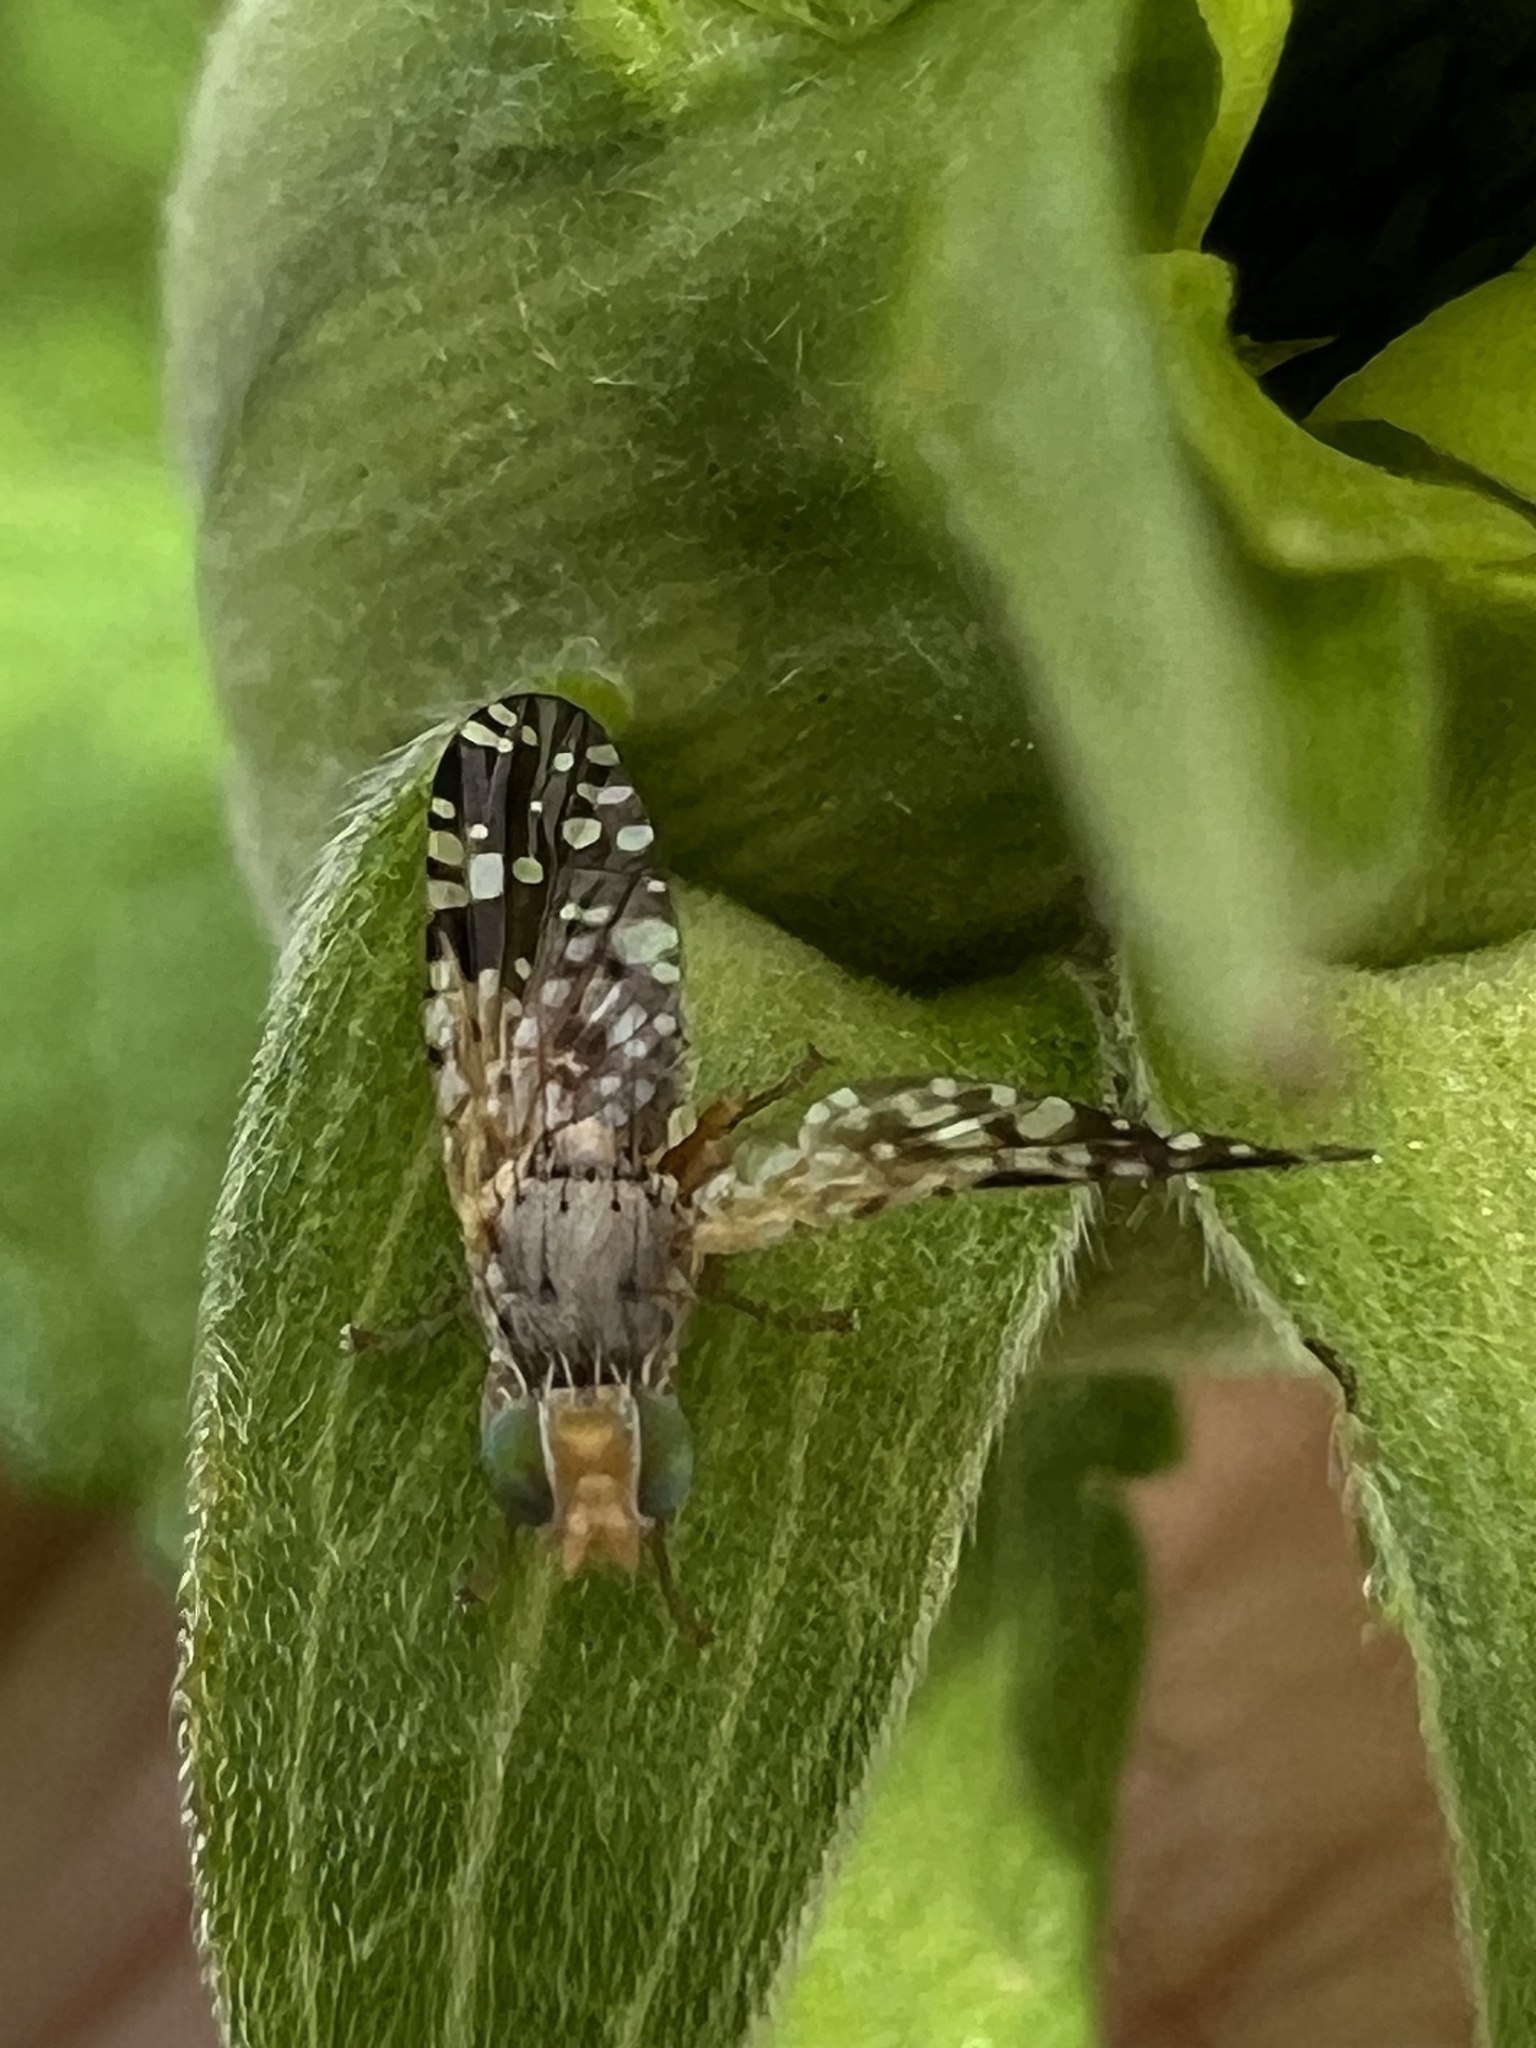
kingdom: Animalia
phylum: Arthropoda
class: Insecta
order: Diptera
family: Tephritidae
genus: Neotephritis
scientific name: Neotephritis finalis
